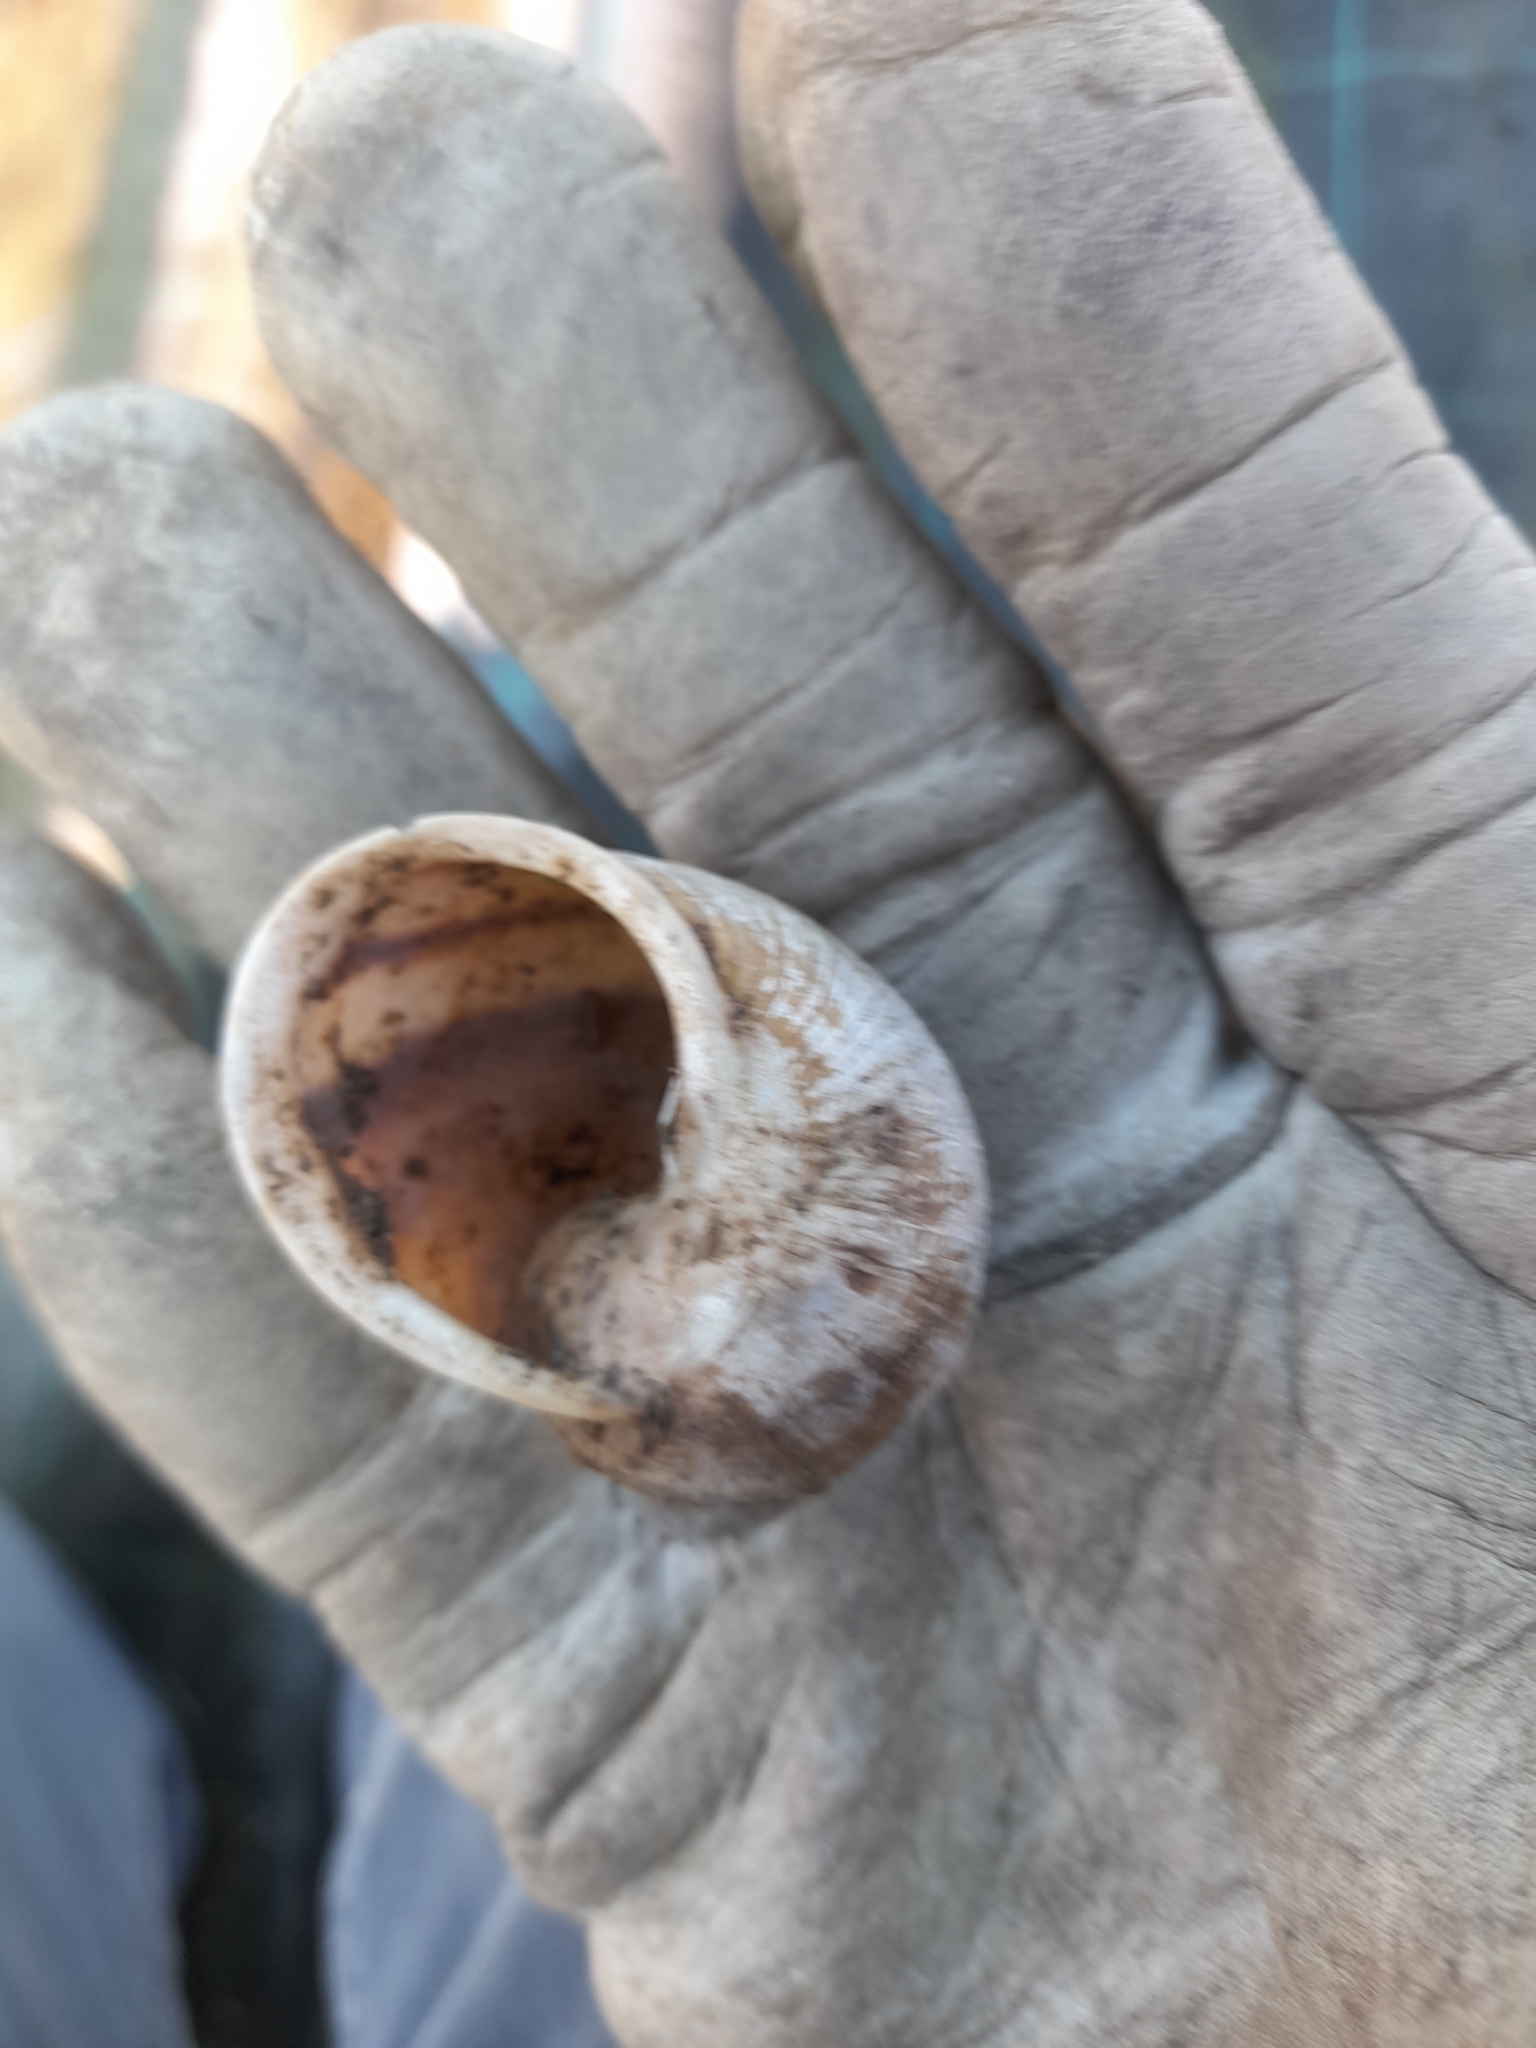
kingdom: Animalia
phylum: Mollusca
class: Gastropoda
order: Stylommatophora
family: Helicidae
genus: Cornu
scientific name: Cornu aspersum
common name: Brown garden snail
